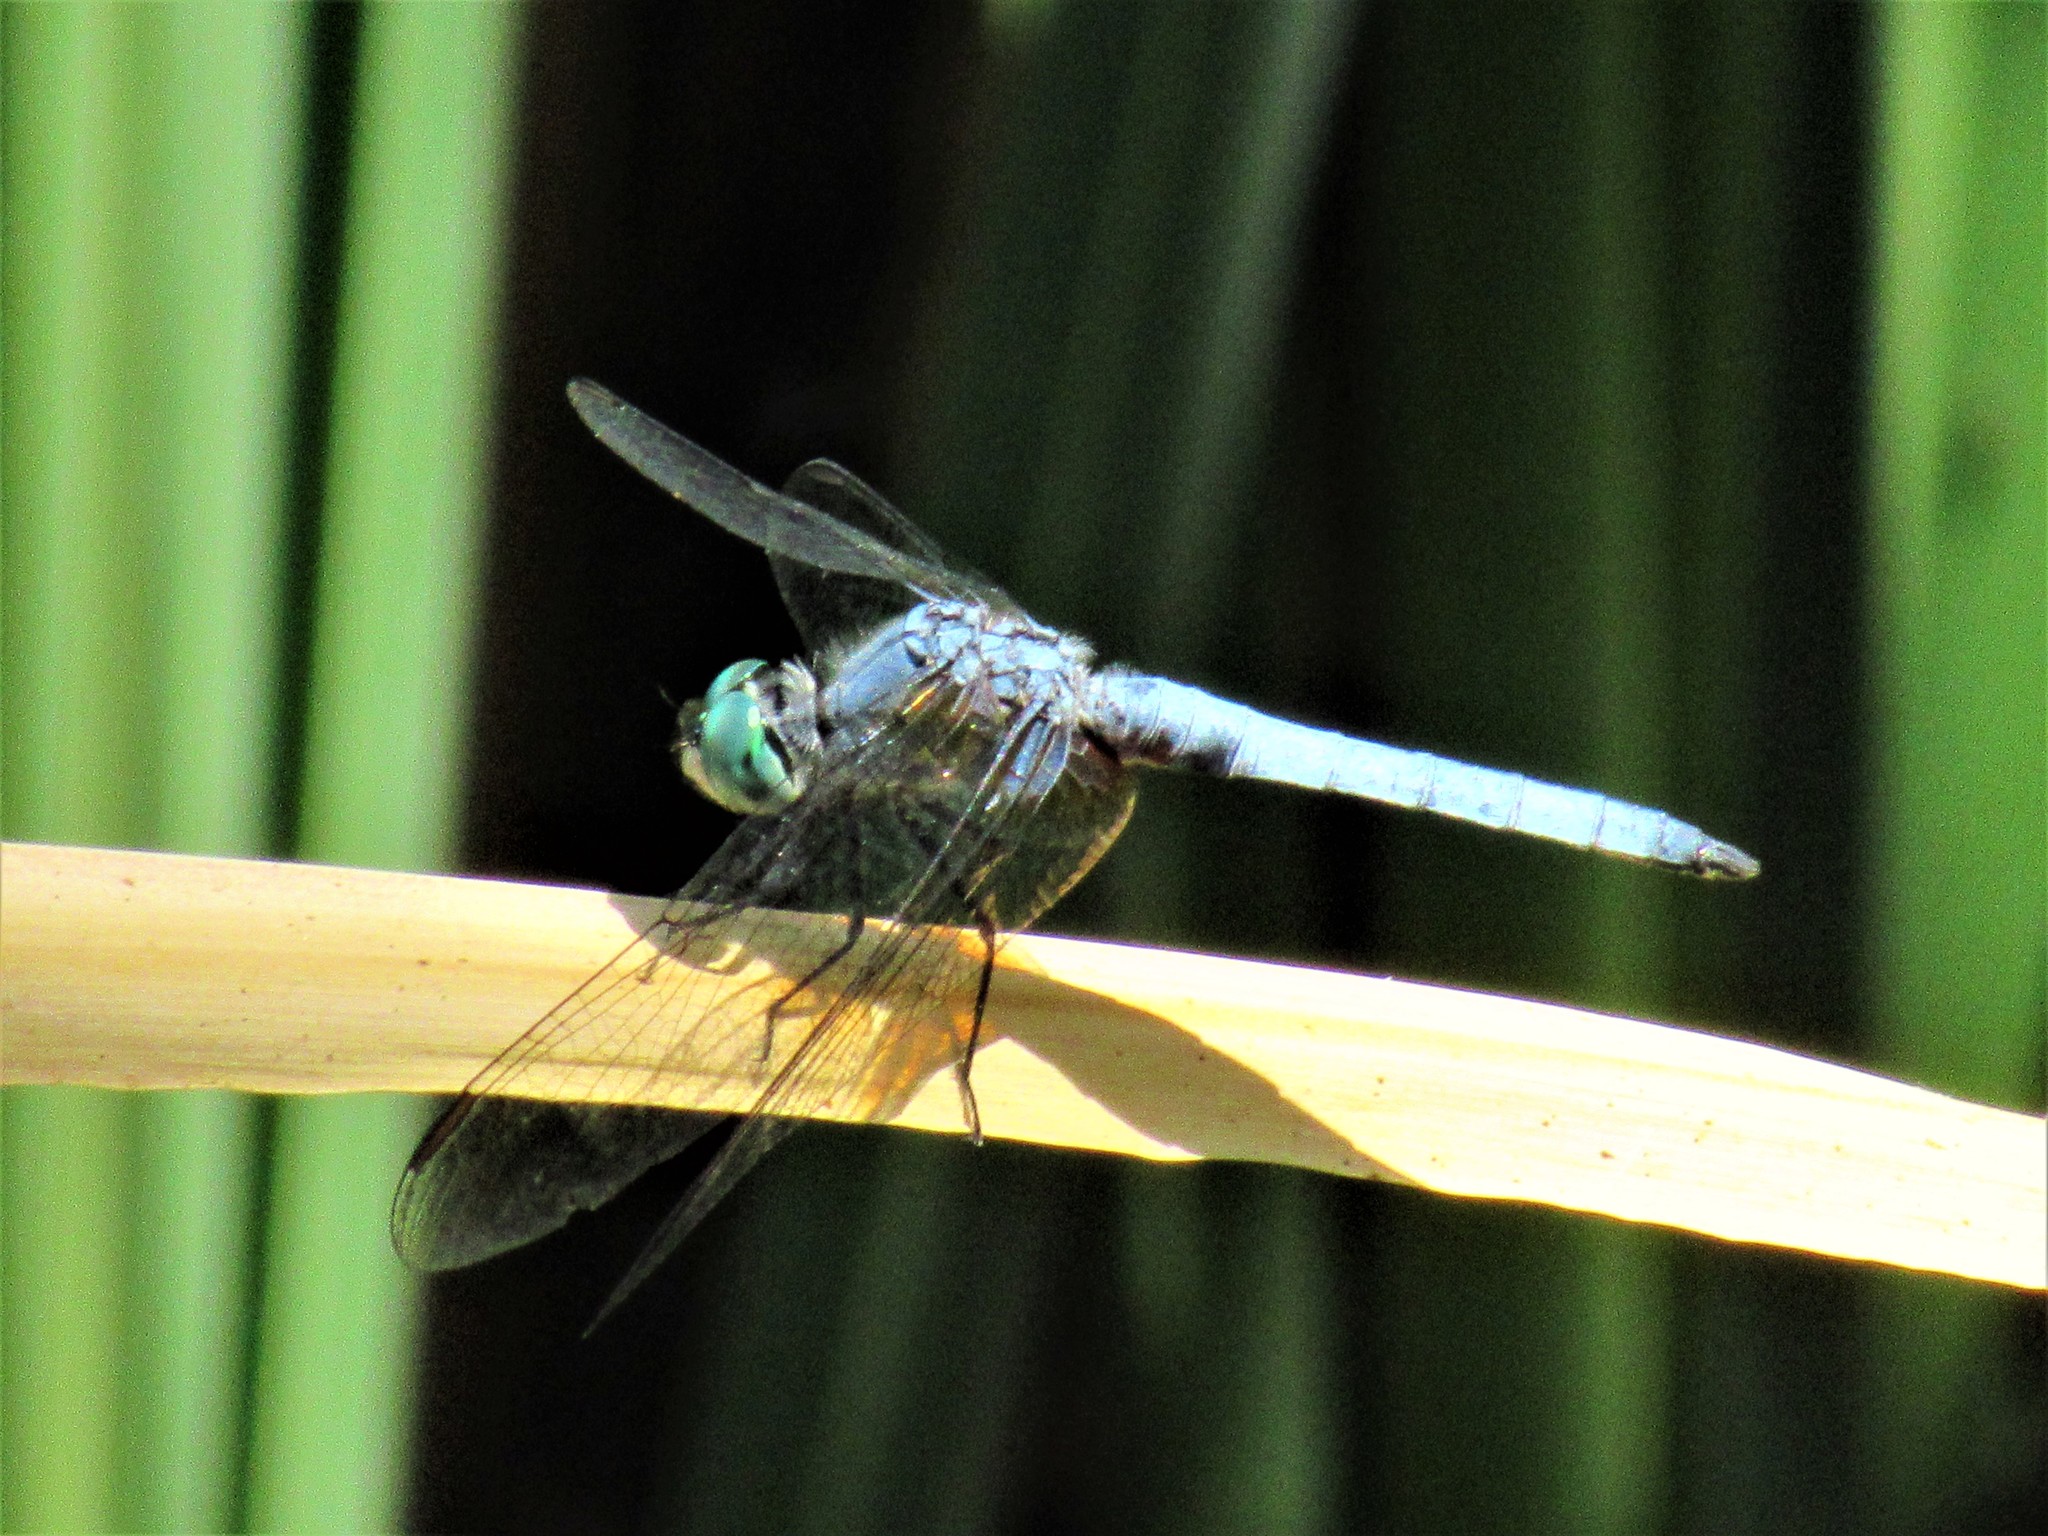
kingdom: Animalia
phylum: Arthropoda
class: Insecta
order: Odonata
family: Libellulidae
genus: Pachydiplax
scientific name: Pachydiplax longipennis
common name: Blue dasher
